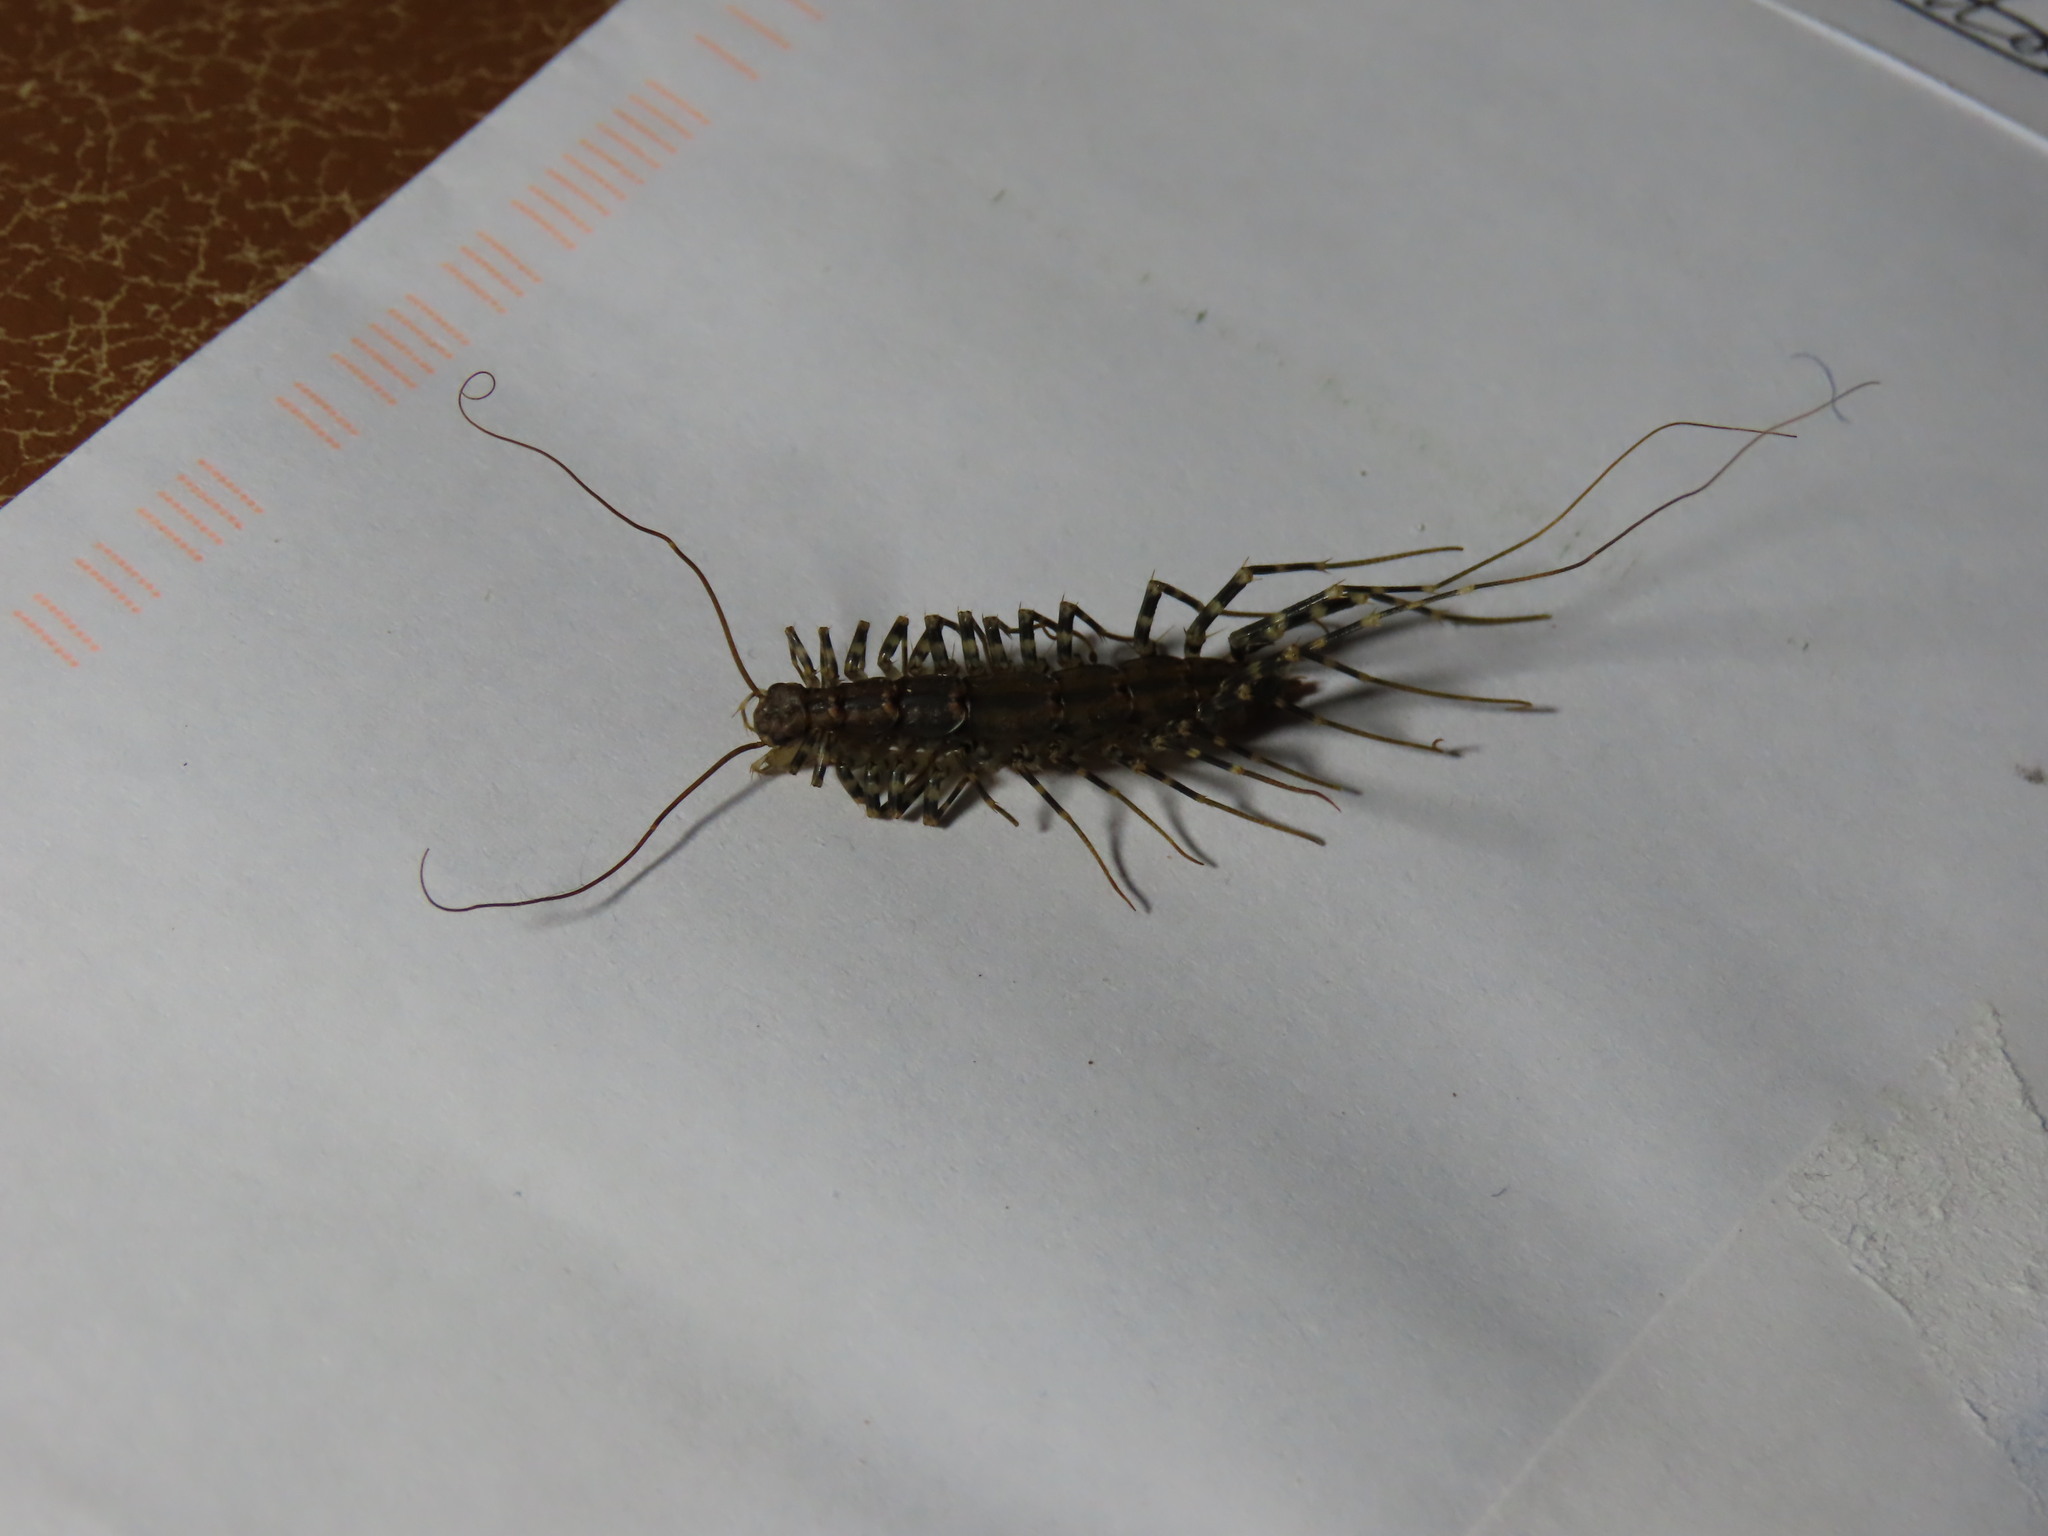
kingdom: Animalia
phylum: Arthropoda
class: Chilopoda
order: Scutigeromorpha
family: Scutigeridae
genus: Allothereua
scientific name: Allothereua maculata
